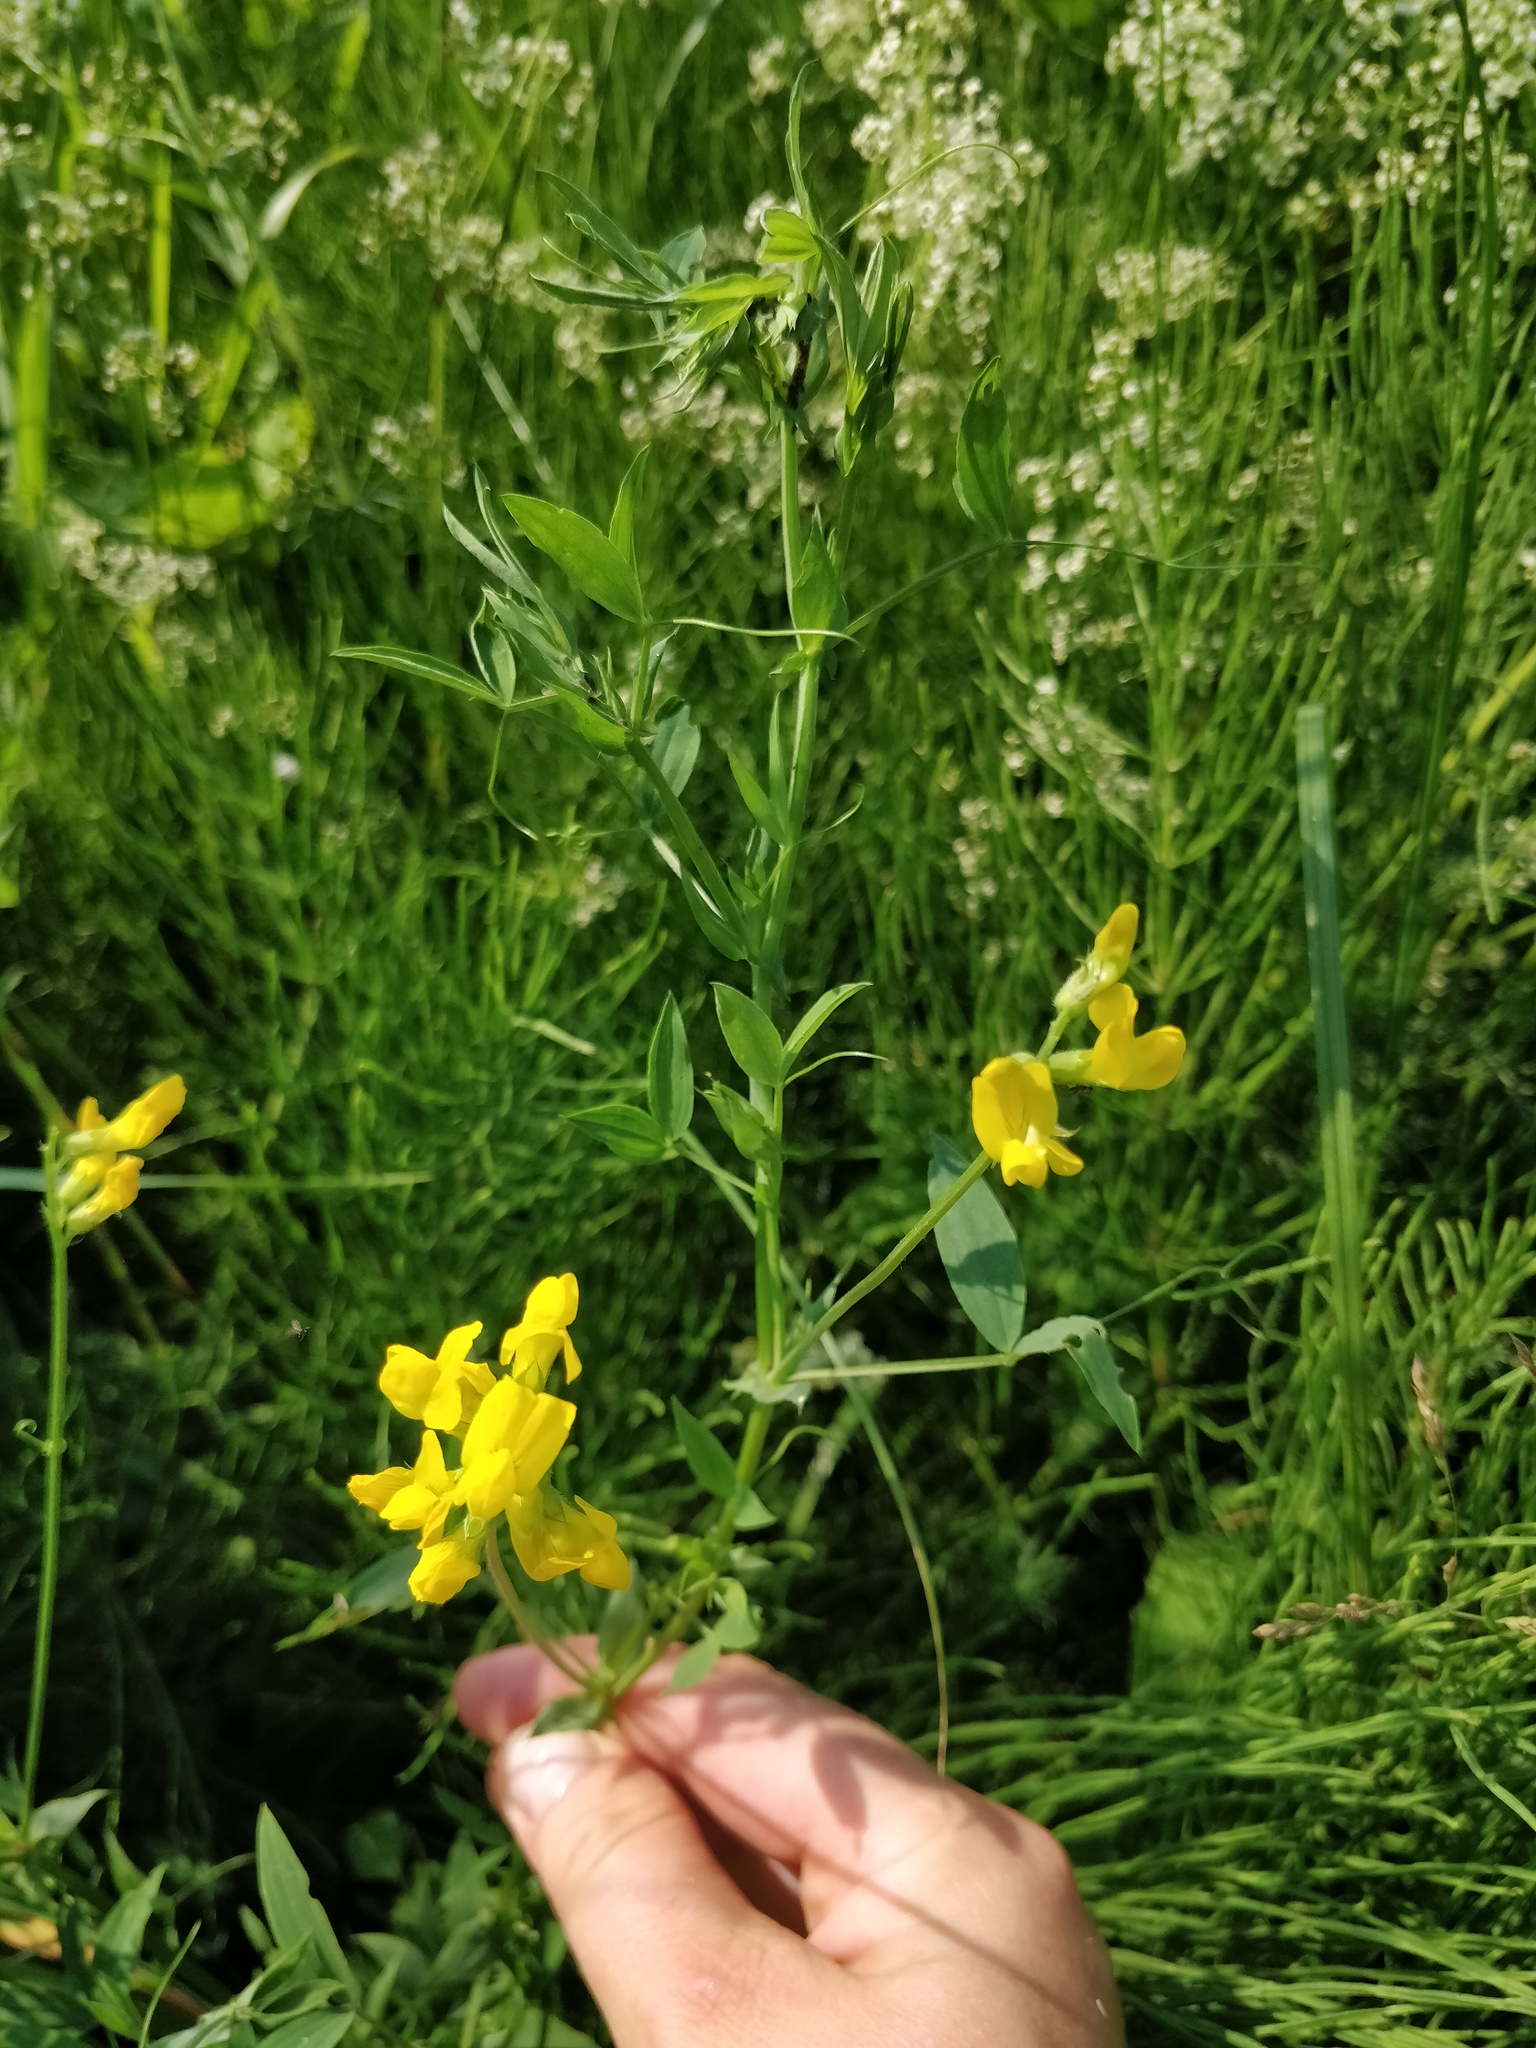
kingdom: Plantae
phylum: Tracheophyta
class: Magnoliopsida
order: Fabales
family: Fabaceae
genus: Lathyrus
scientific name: Lathyrus pratensis
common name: Meadow vetchling
